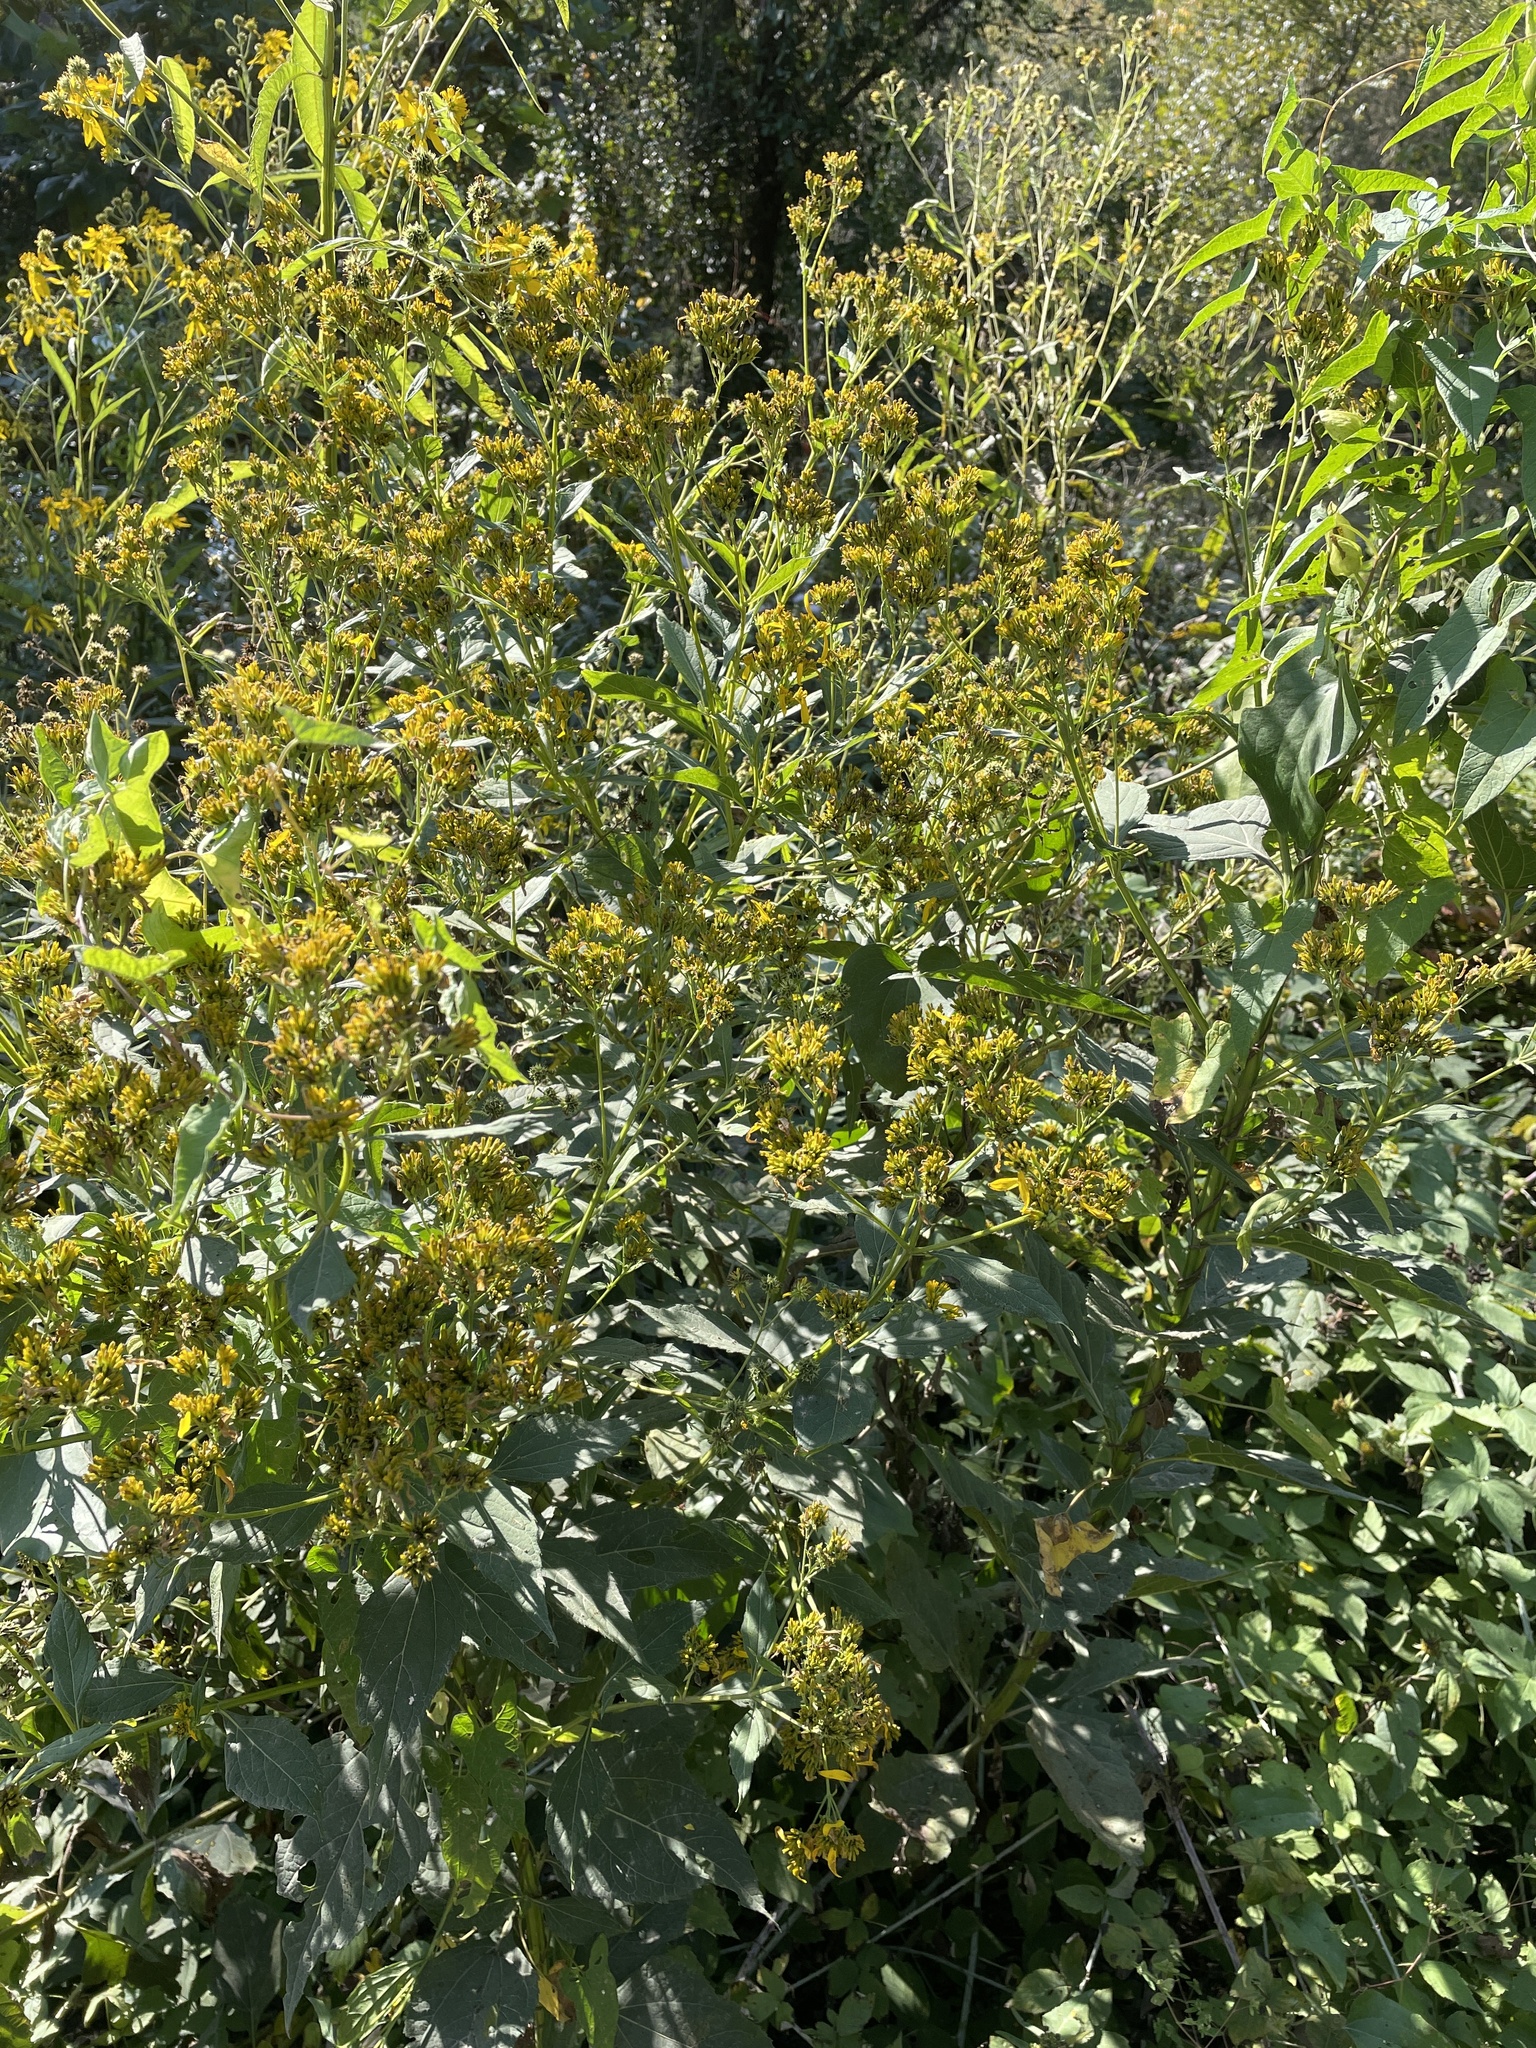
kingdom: Plantae
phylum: Tracheophyta
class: Magnoliopsida
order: Asterales
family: Asteraceae
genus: Verbesina
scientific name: Verbesina occidentalis
